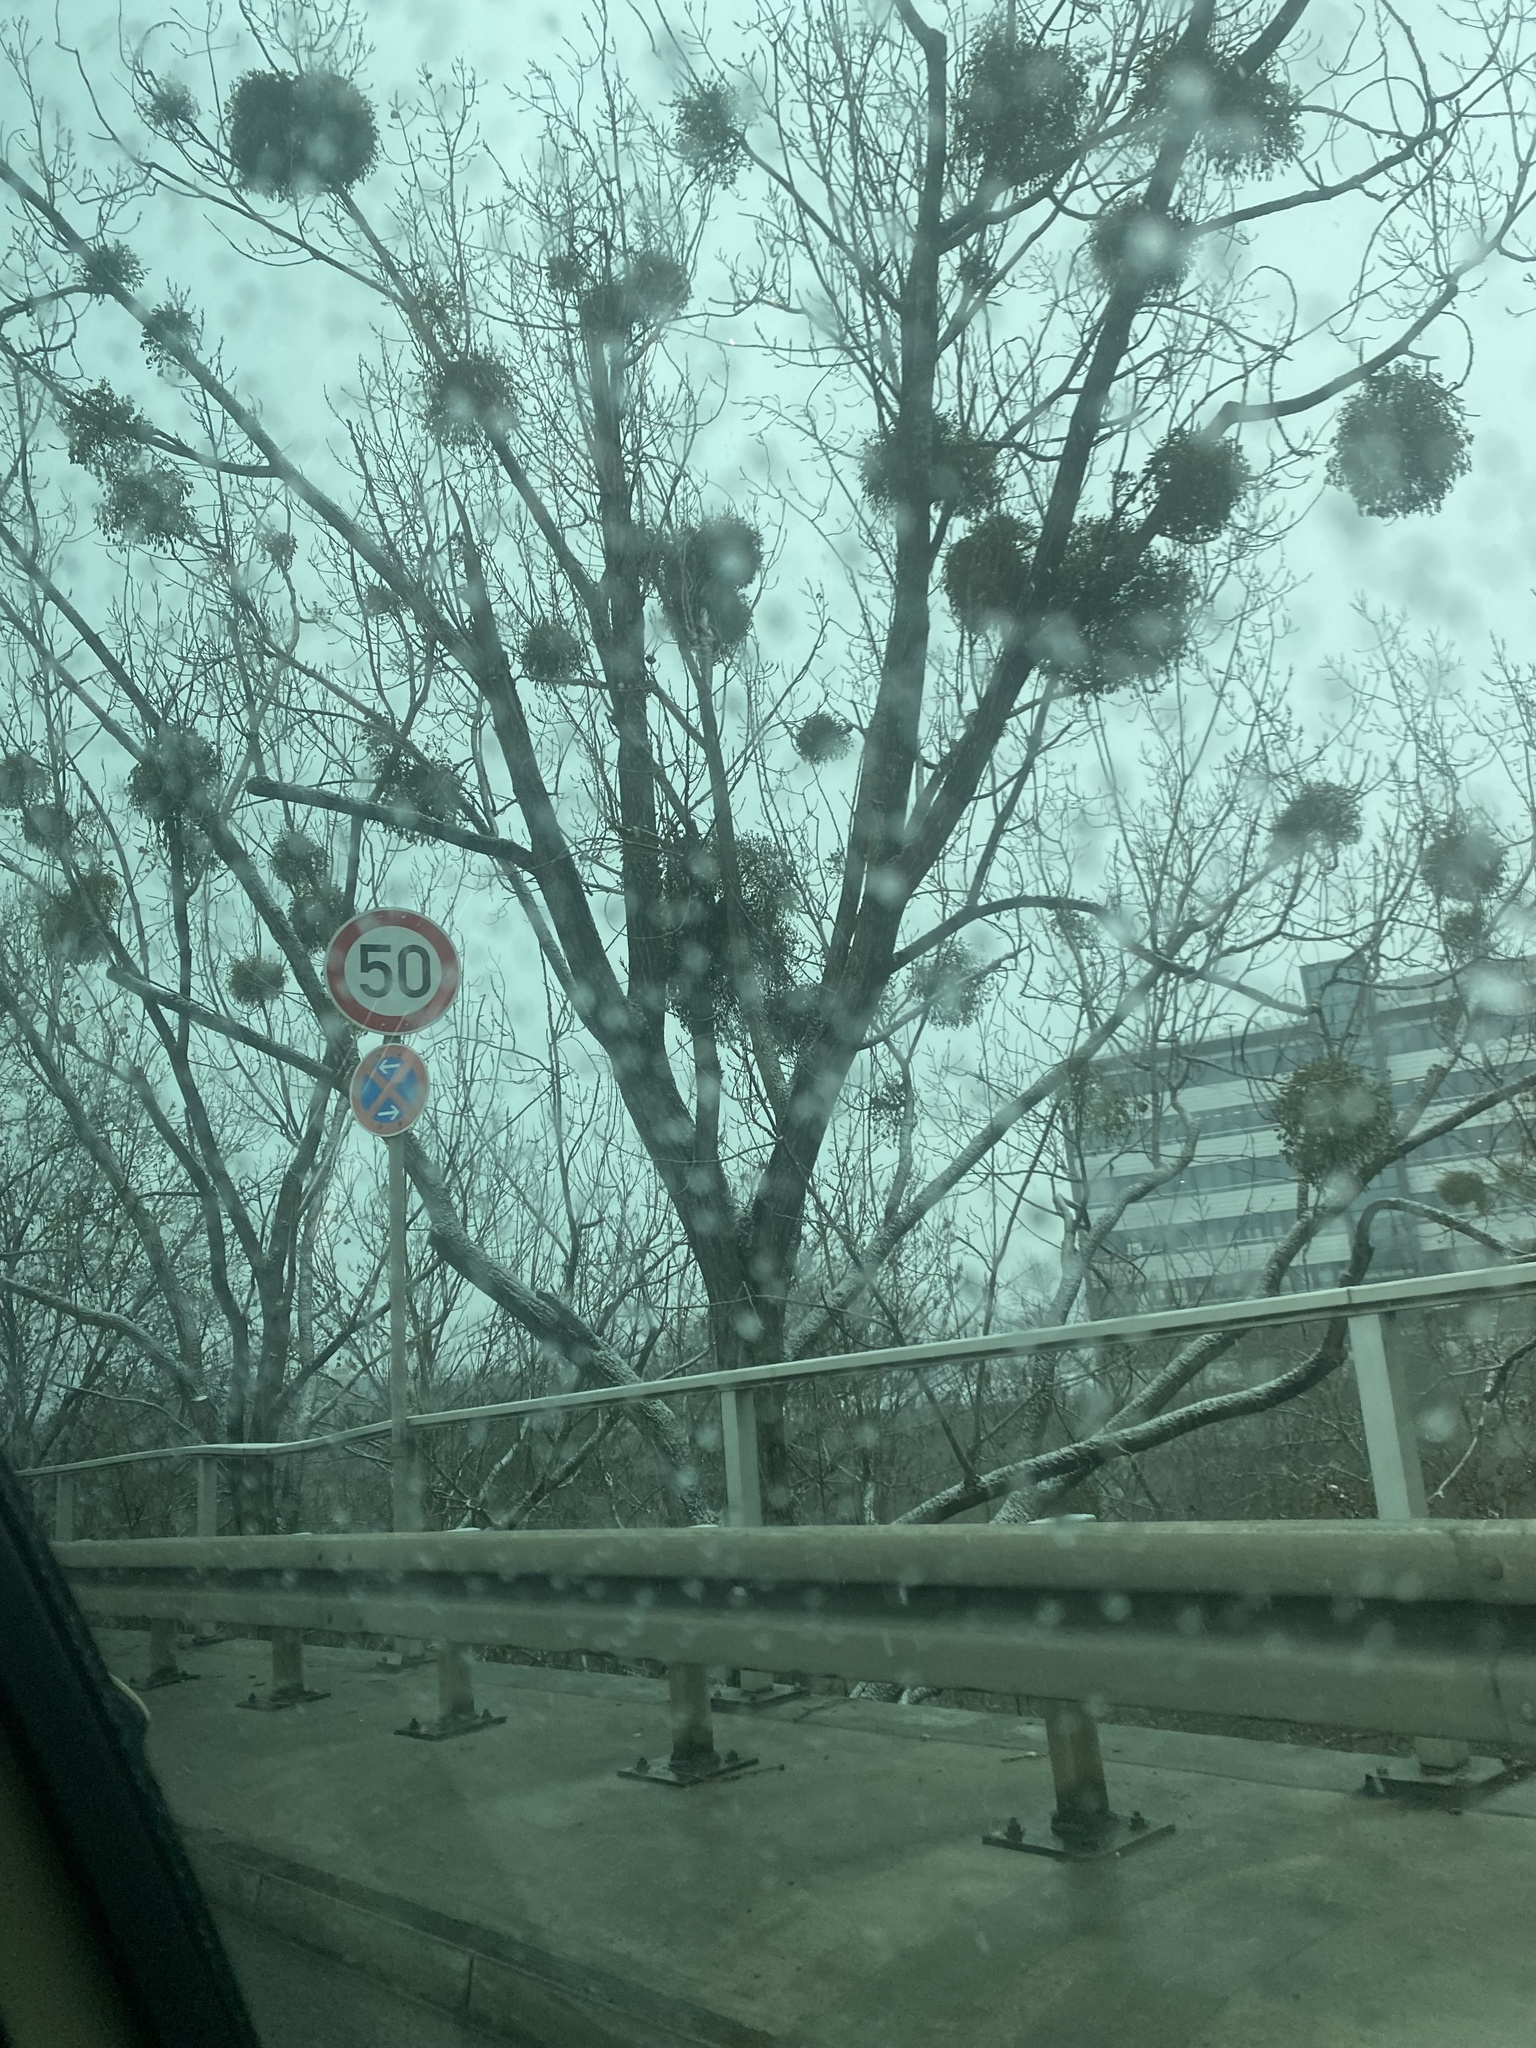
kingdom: Plantae
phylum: Tracheophyta
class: Magnoliopsida
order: Santalales
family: Viscaceae
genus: Viscum
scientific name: Viscum album
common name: Mistletoe
